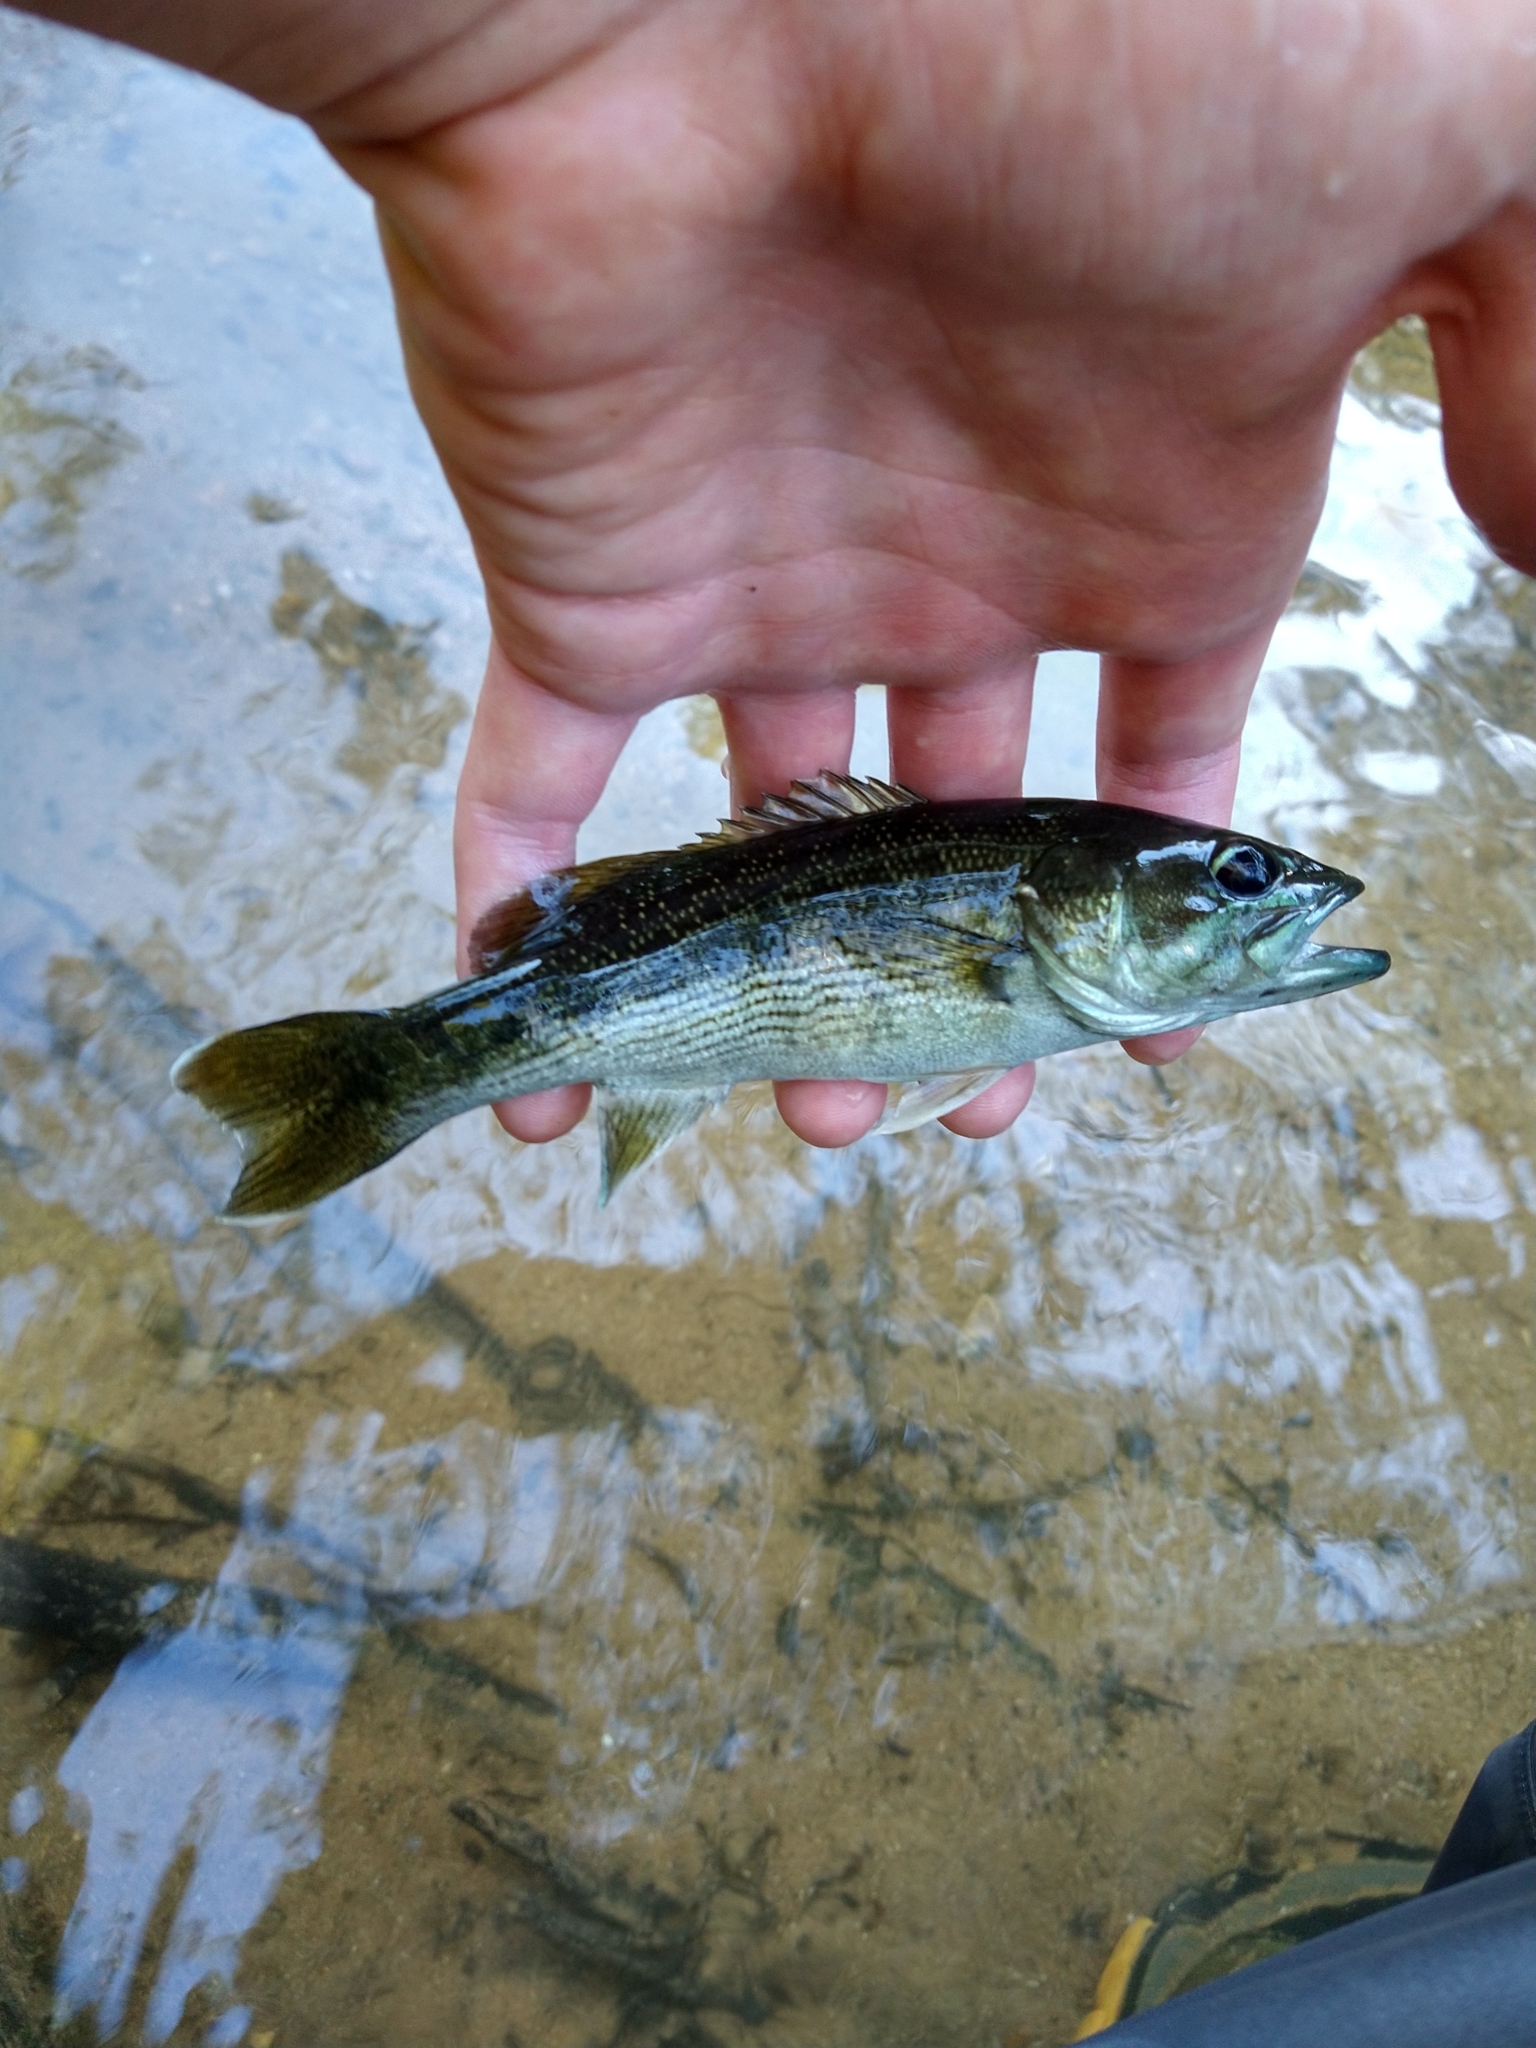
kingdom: Animalia
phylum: Chordata
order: Perciformes
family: Centrarchidae
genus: Micropterus
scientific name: Micropterus warriorensis
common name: Warrior bass
